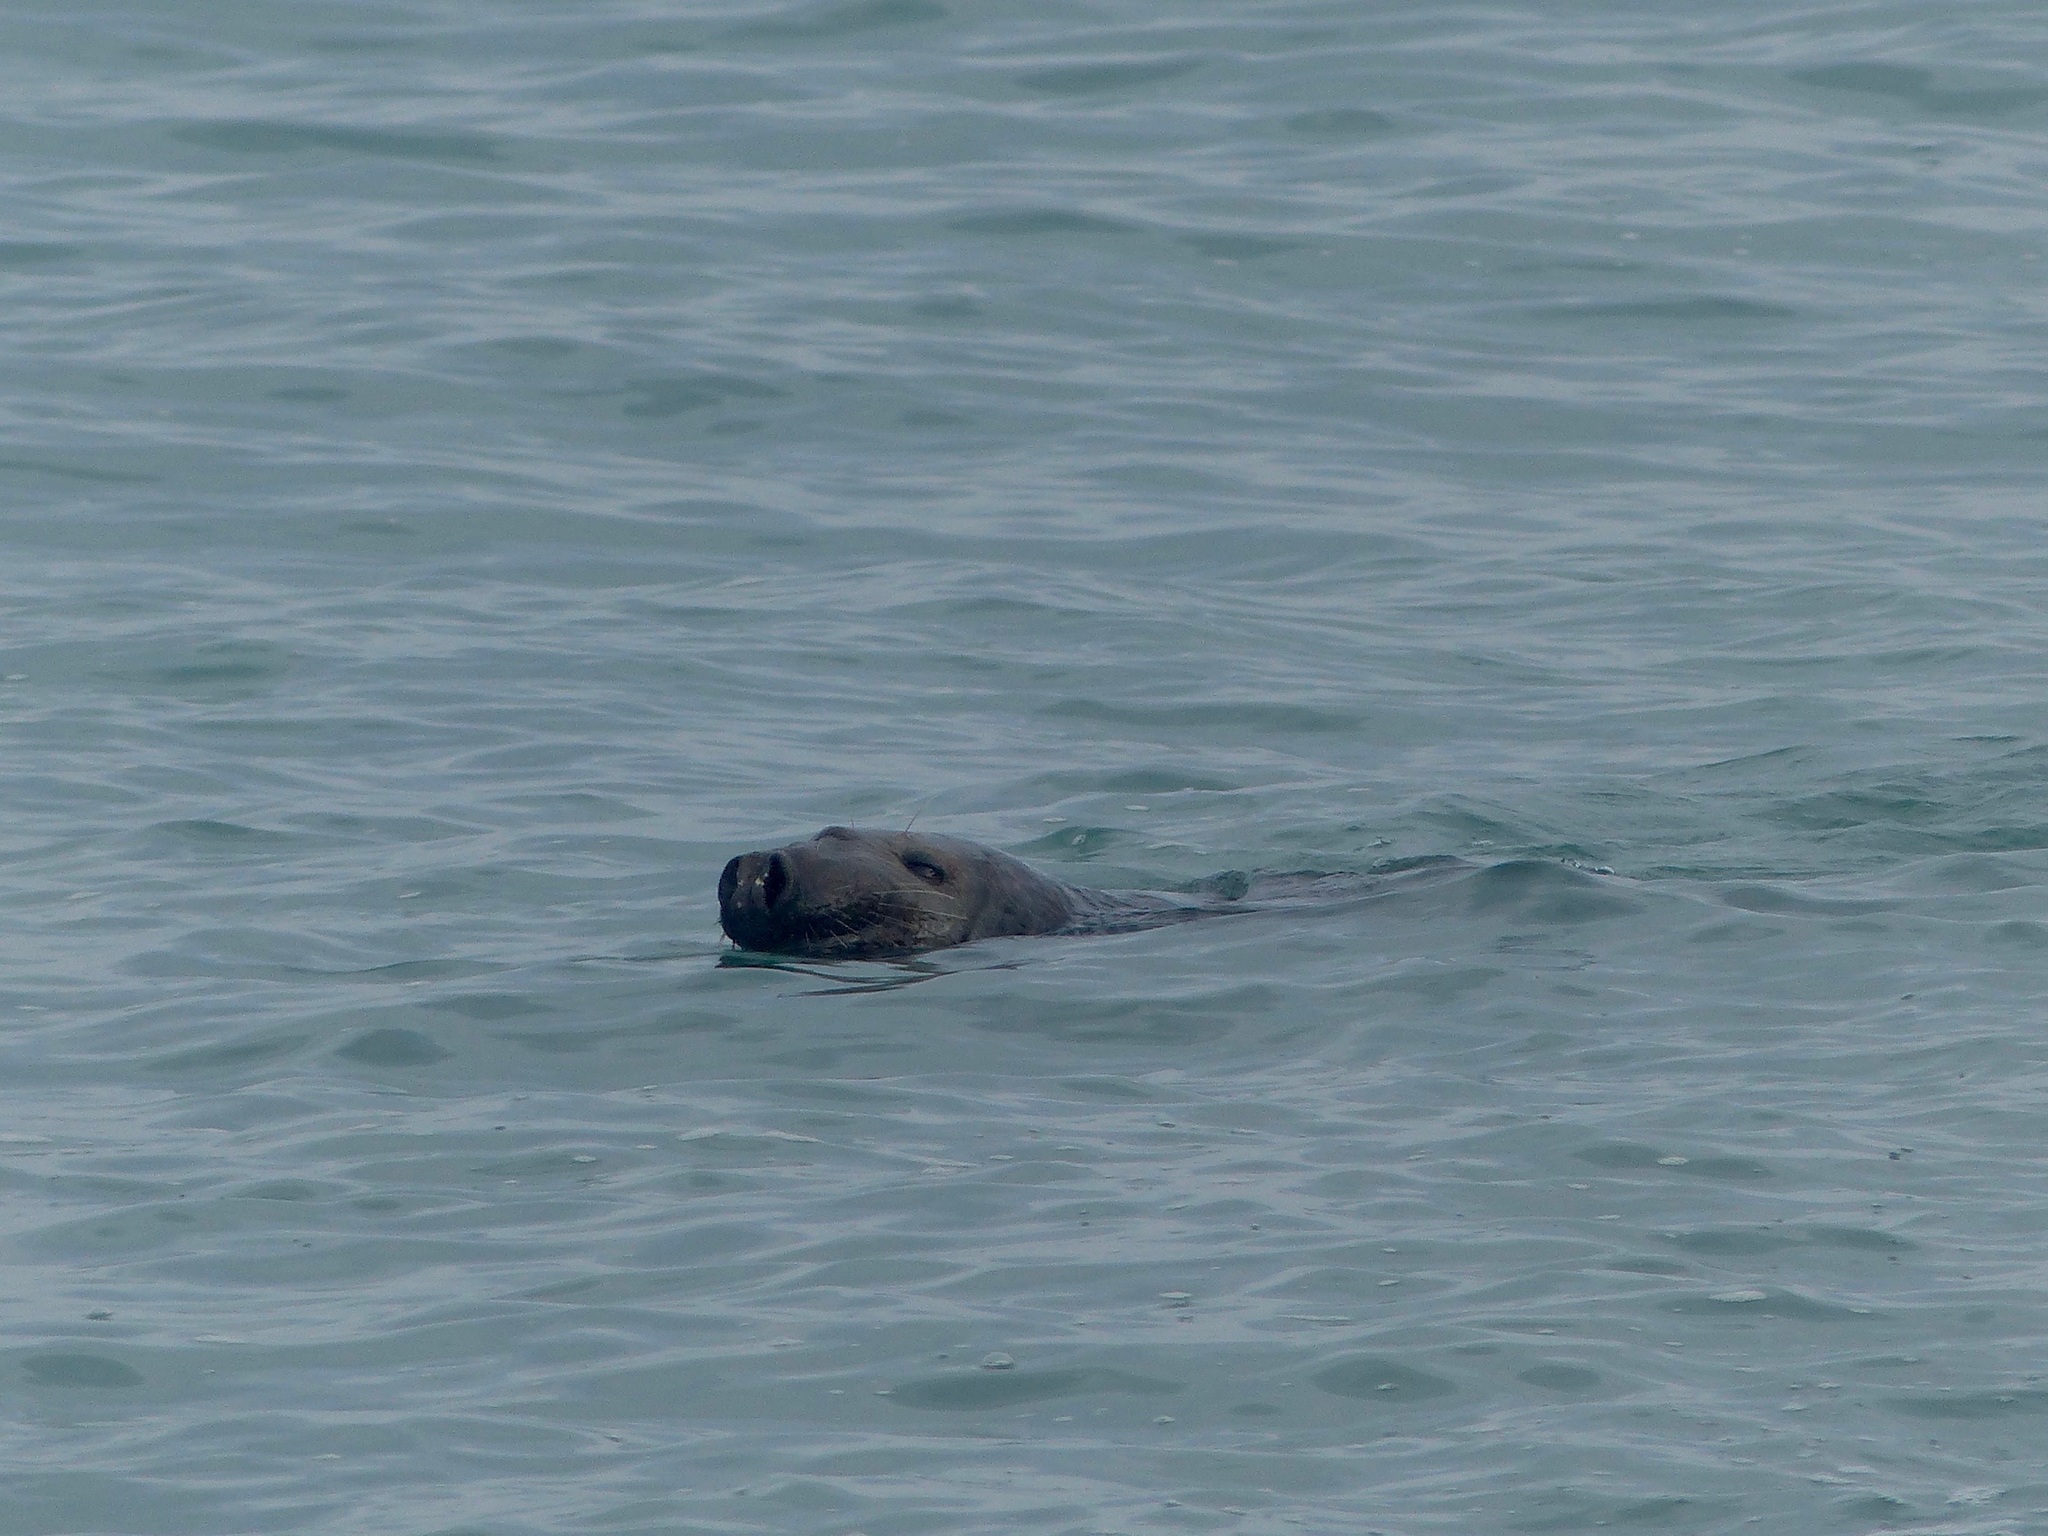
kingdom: Animalia
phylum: Chordata
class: Mammalia
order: Carnivora
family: Phocidae
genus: Halichoerus
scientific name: Halichoerus grypus
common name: Grey seal
